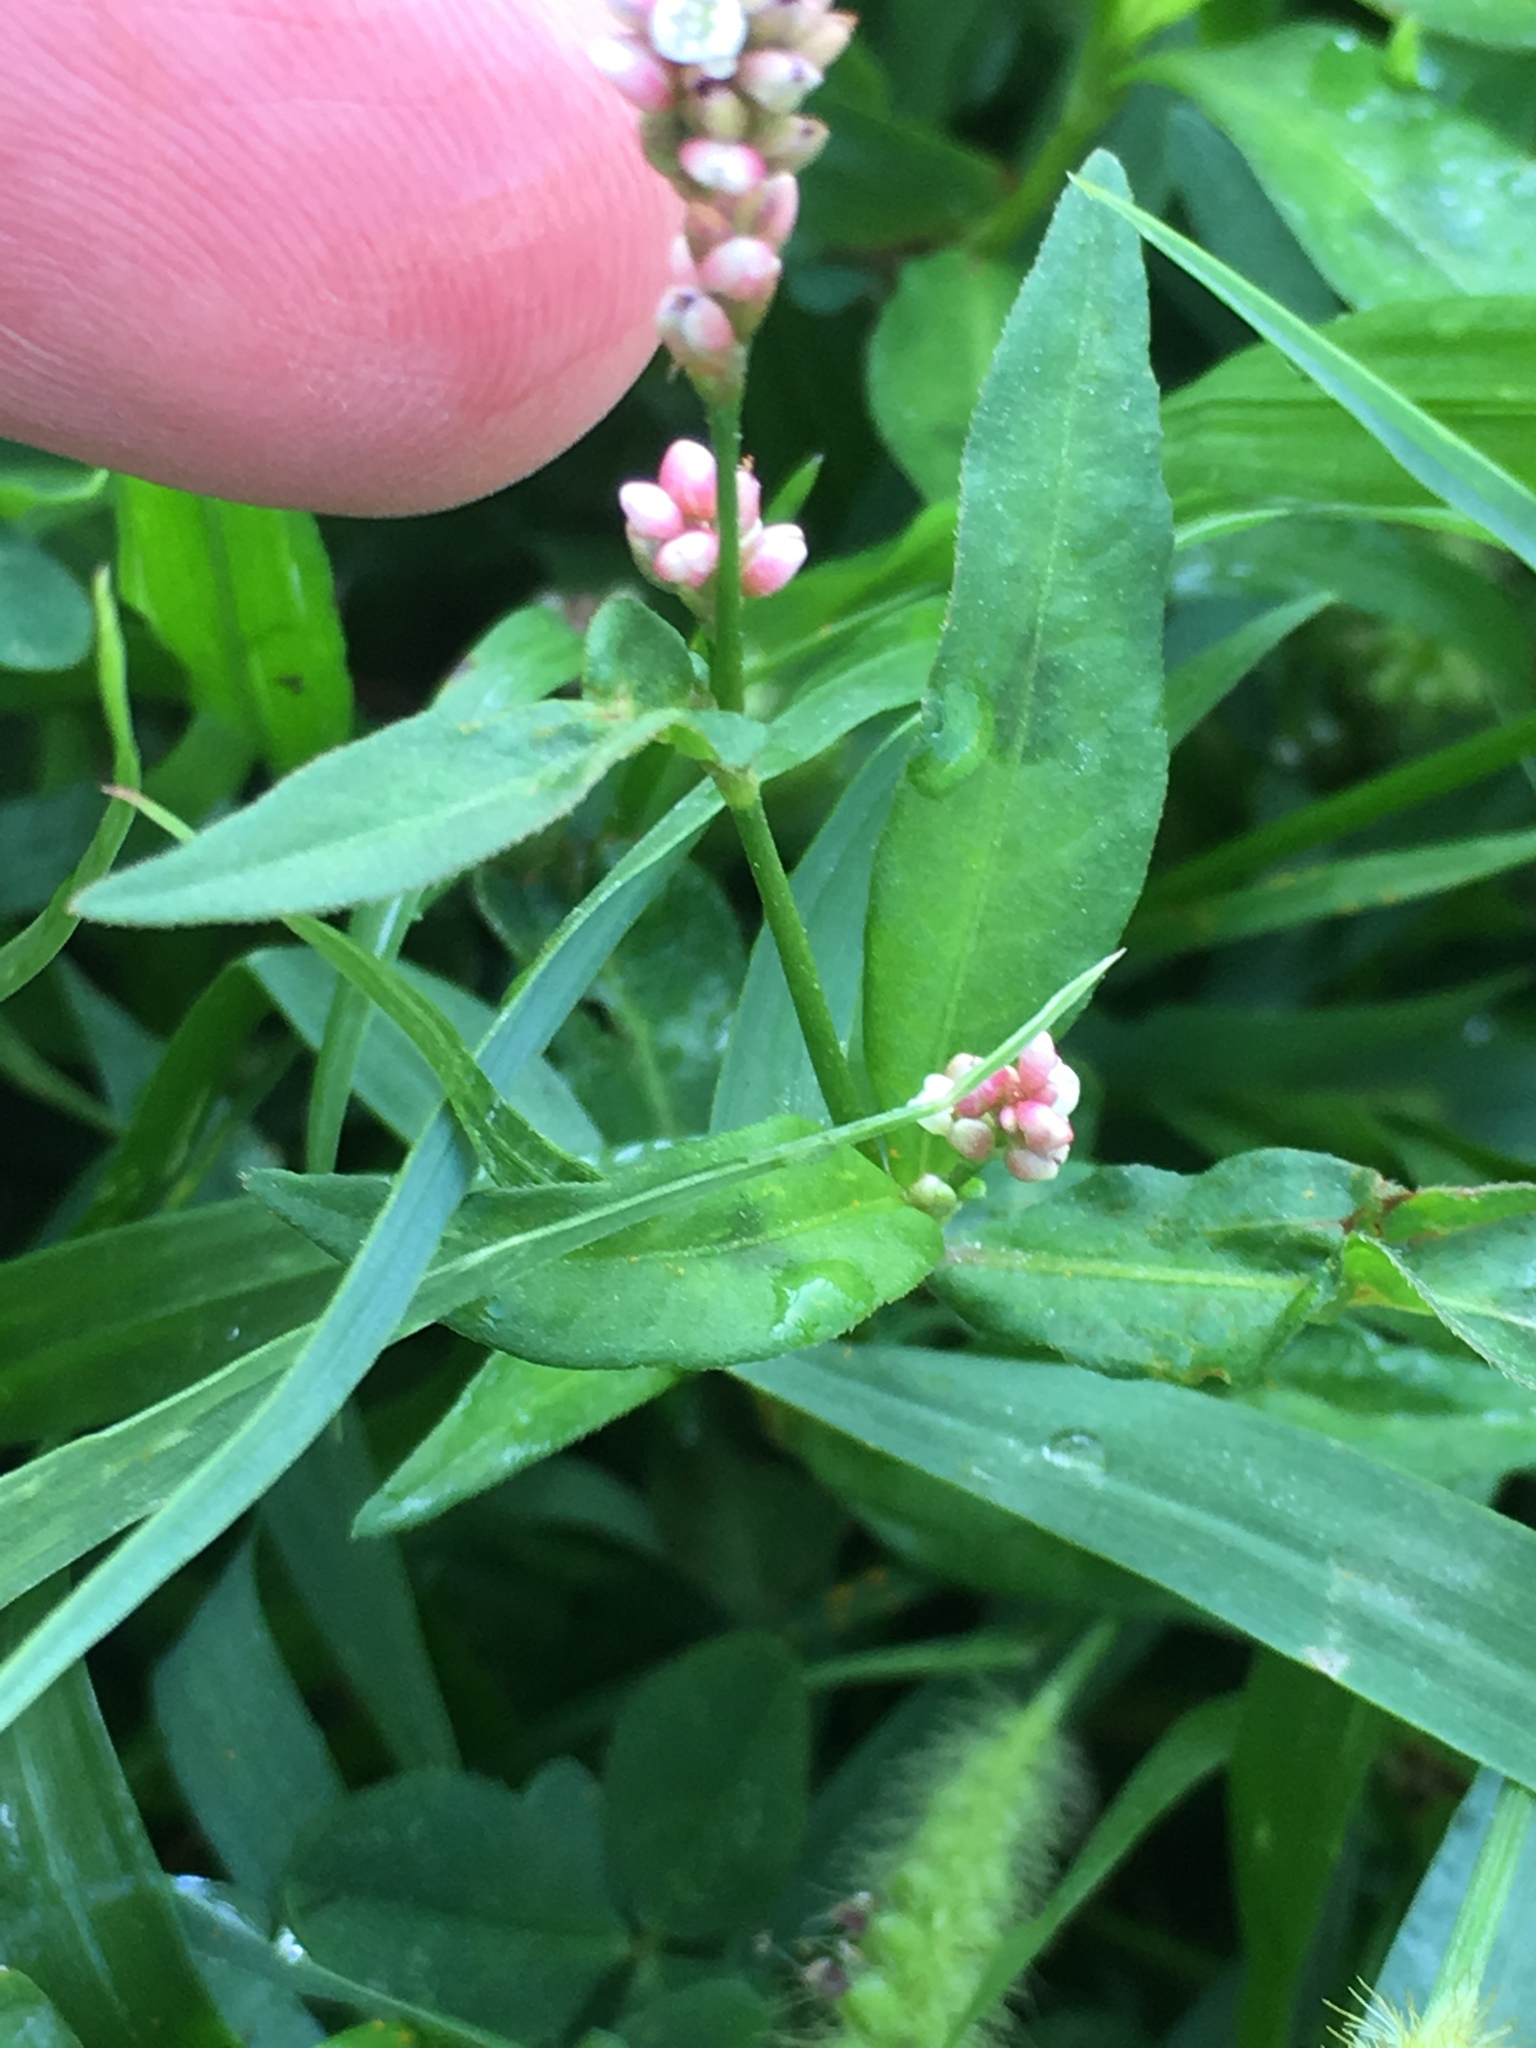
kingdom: Plantae
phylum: Tracheophyta
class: Magnoliopsida
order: Caryophyllales
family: Polygonaceae
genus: Persicaria
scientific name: Persicaria maculosa
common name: Redshank
